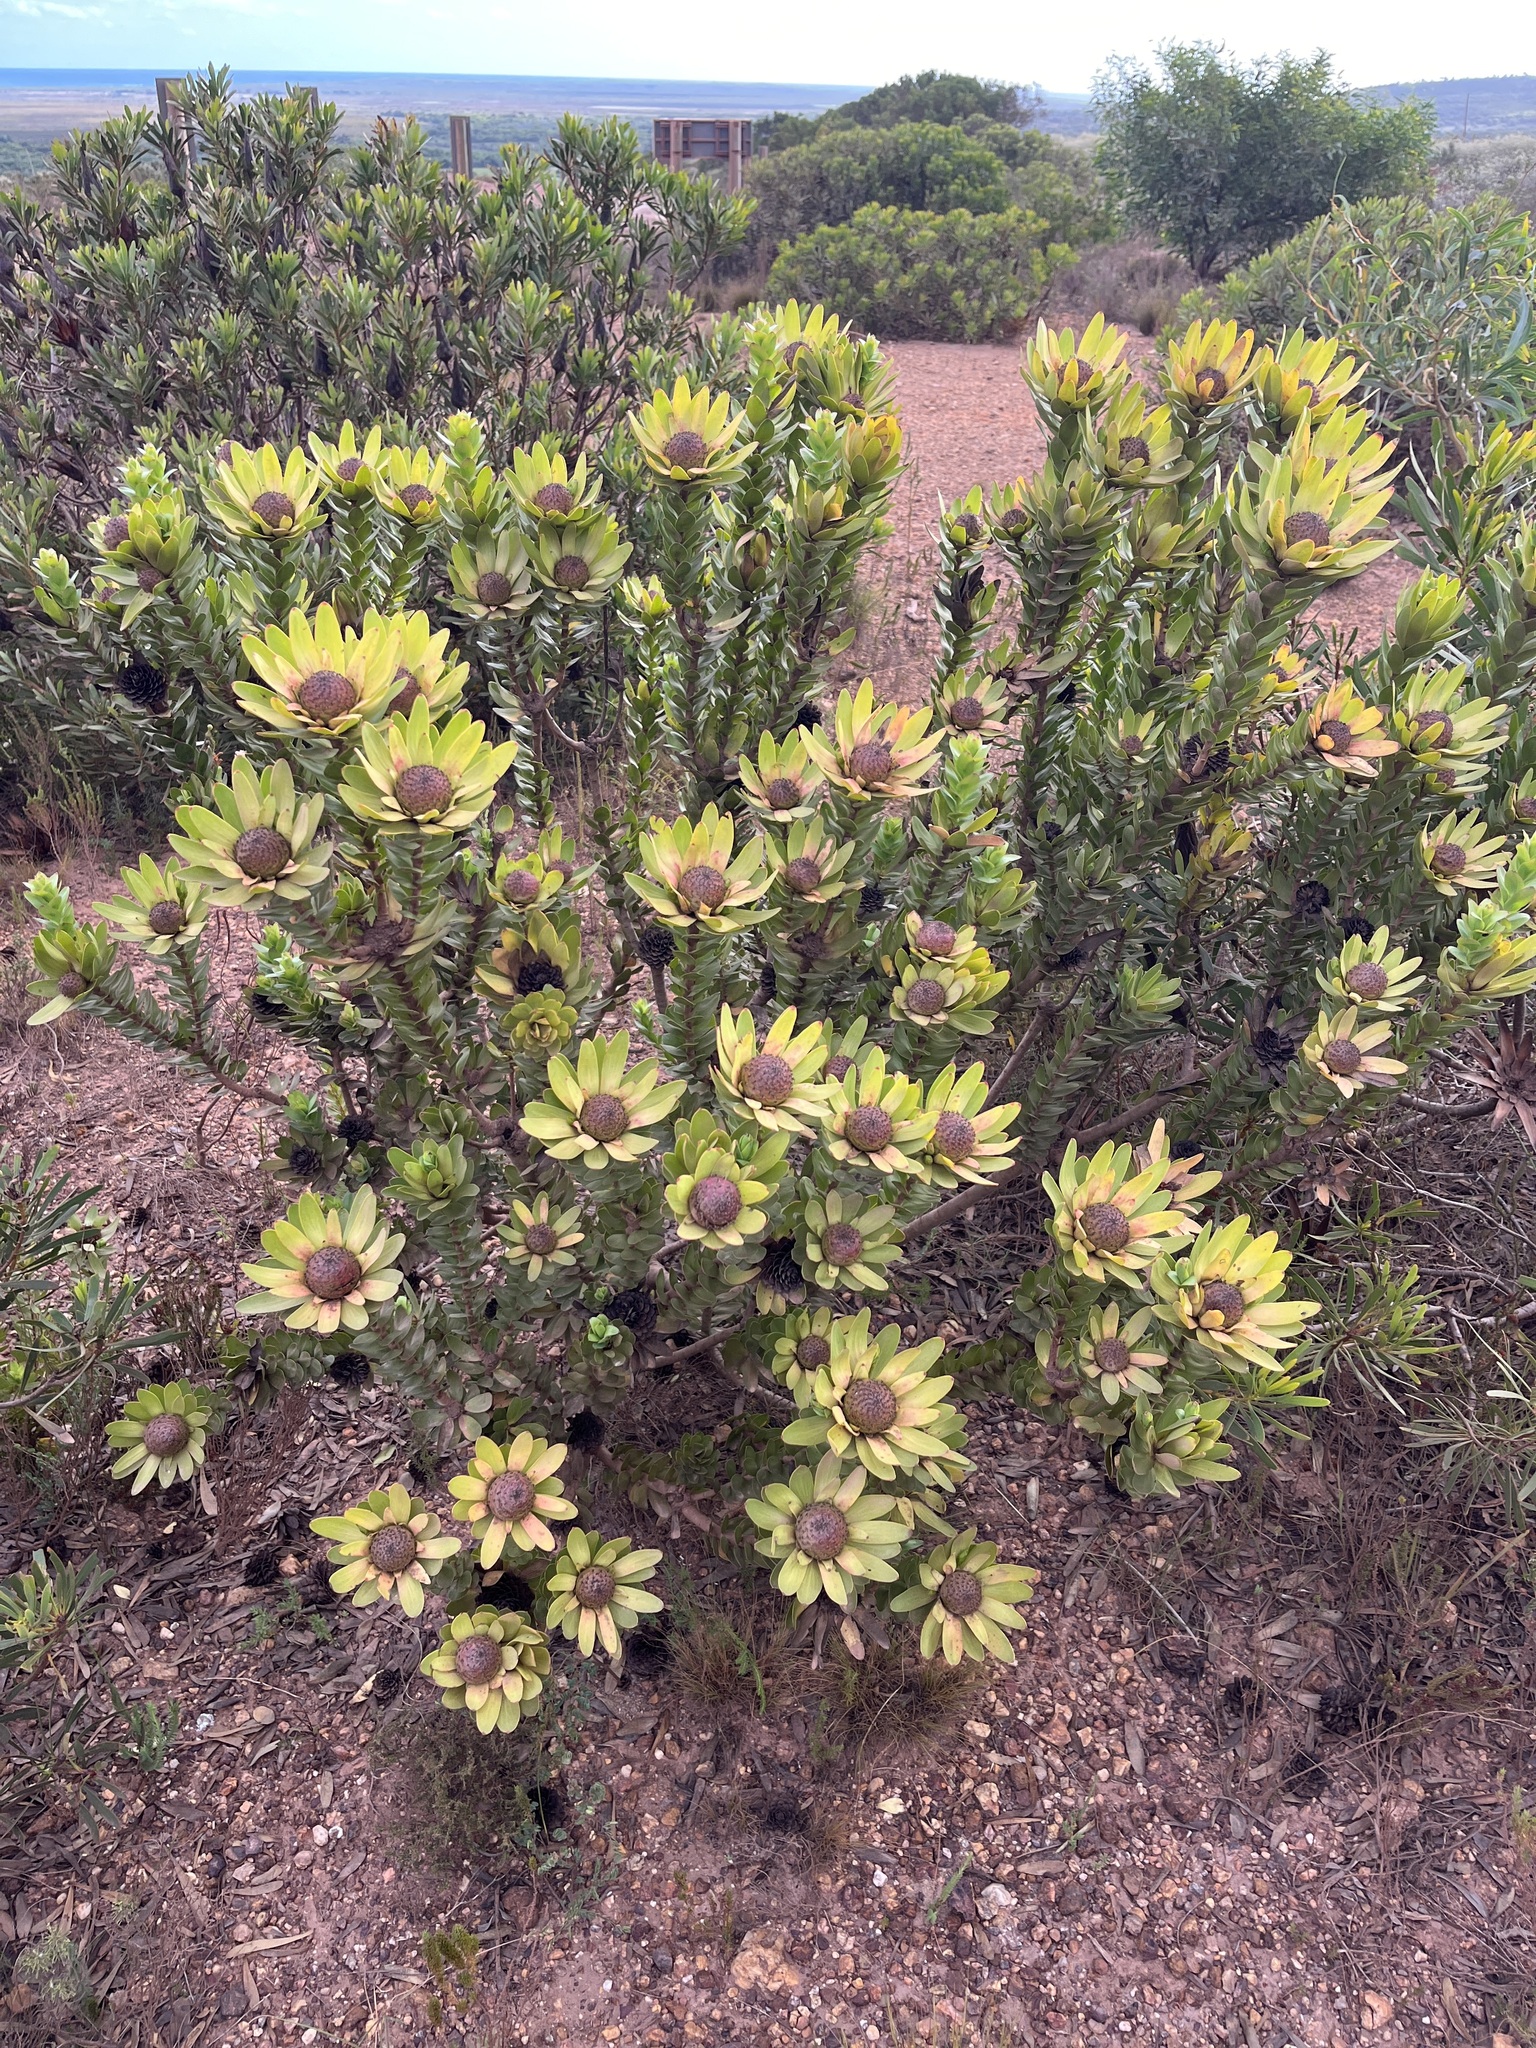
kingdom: Plantae
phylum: Tracheophyta
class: Magnoliopsida
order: Proteales
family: Proteaceae
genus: Leucadendron
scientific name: Leucadendron elimense
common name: Elim conebush
